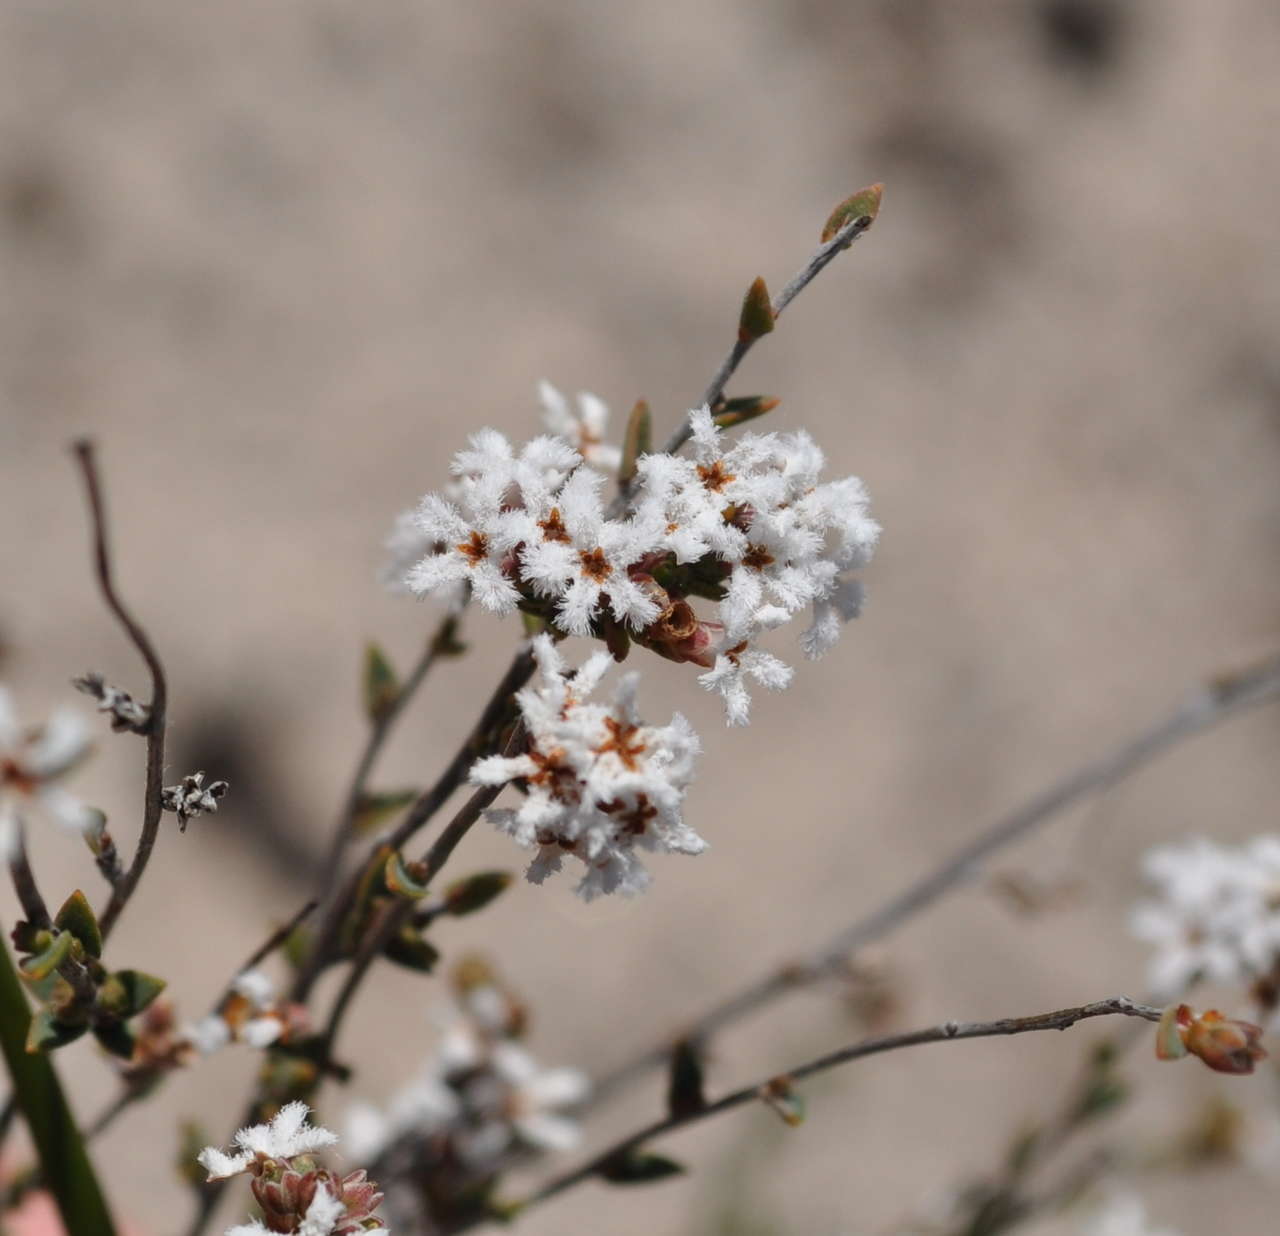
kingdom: Plantae
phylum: Tracheophyta
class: Magnoliopsida
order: Ericales
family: Ericaceae
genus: Leucopogon
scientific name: Leucopogon virgatus
